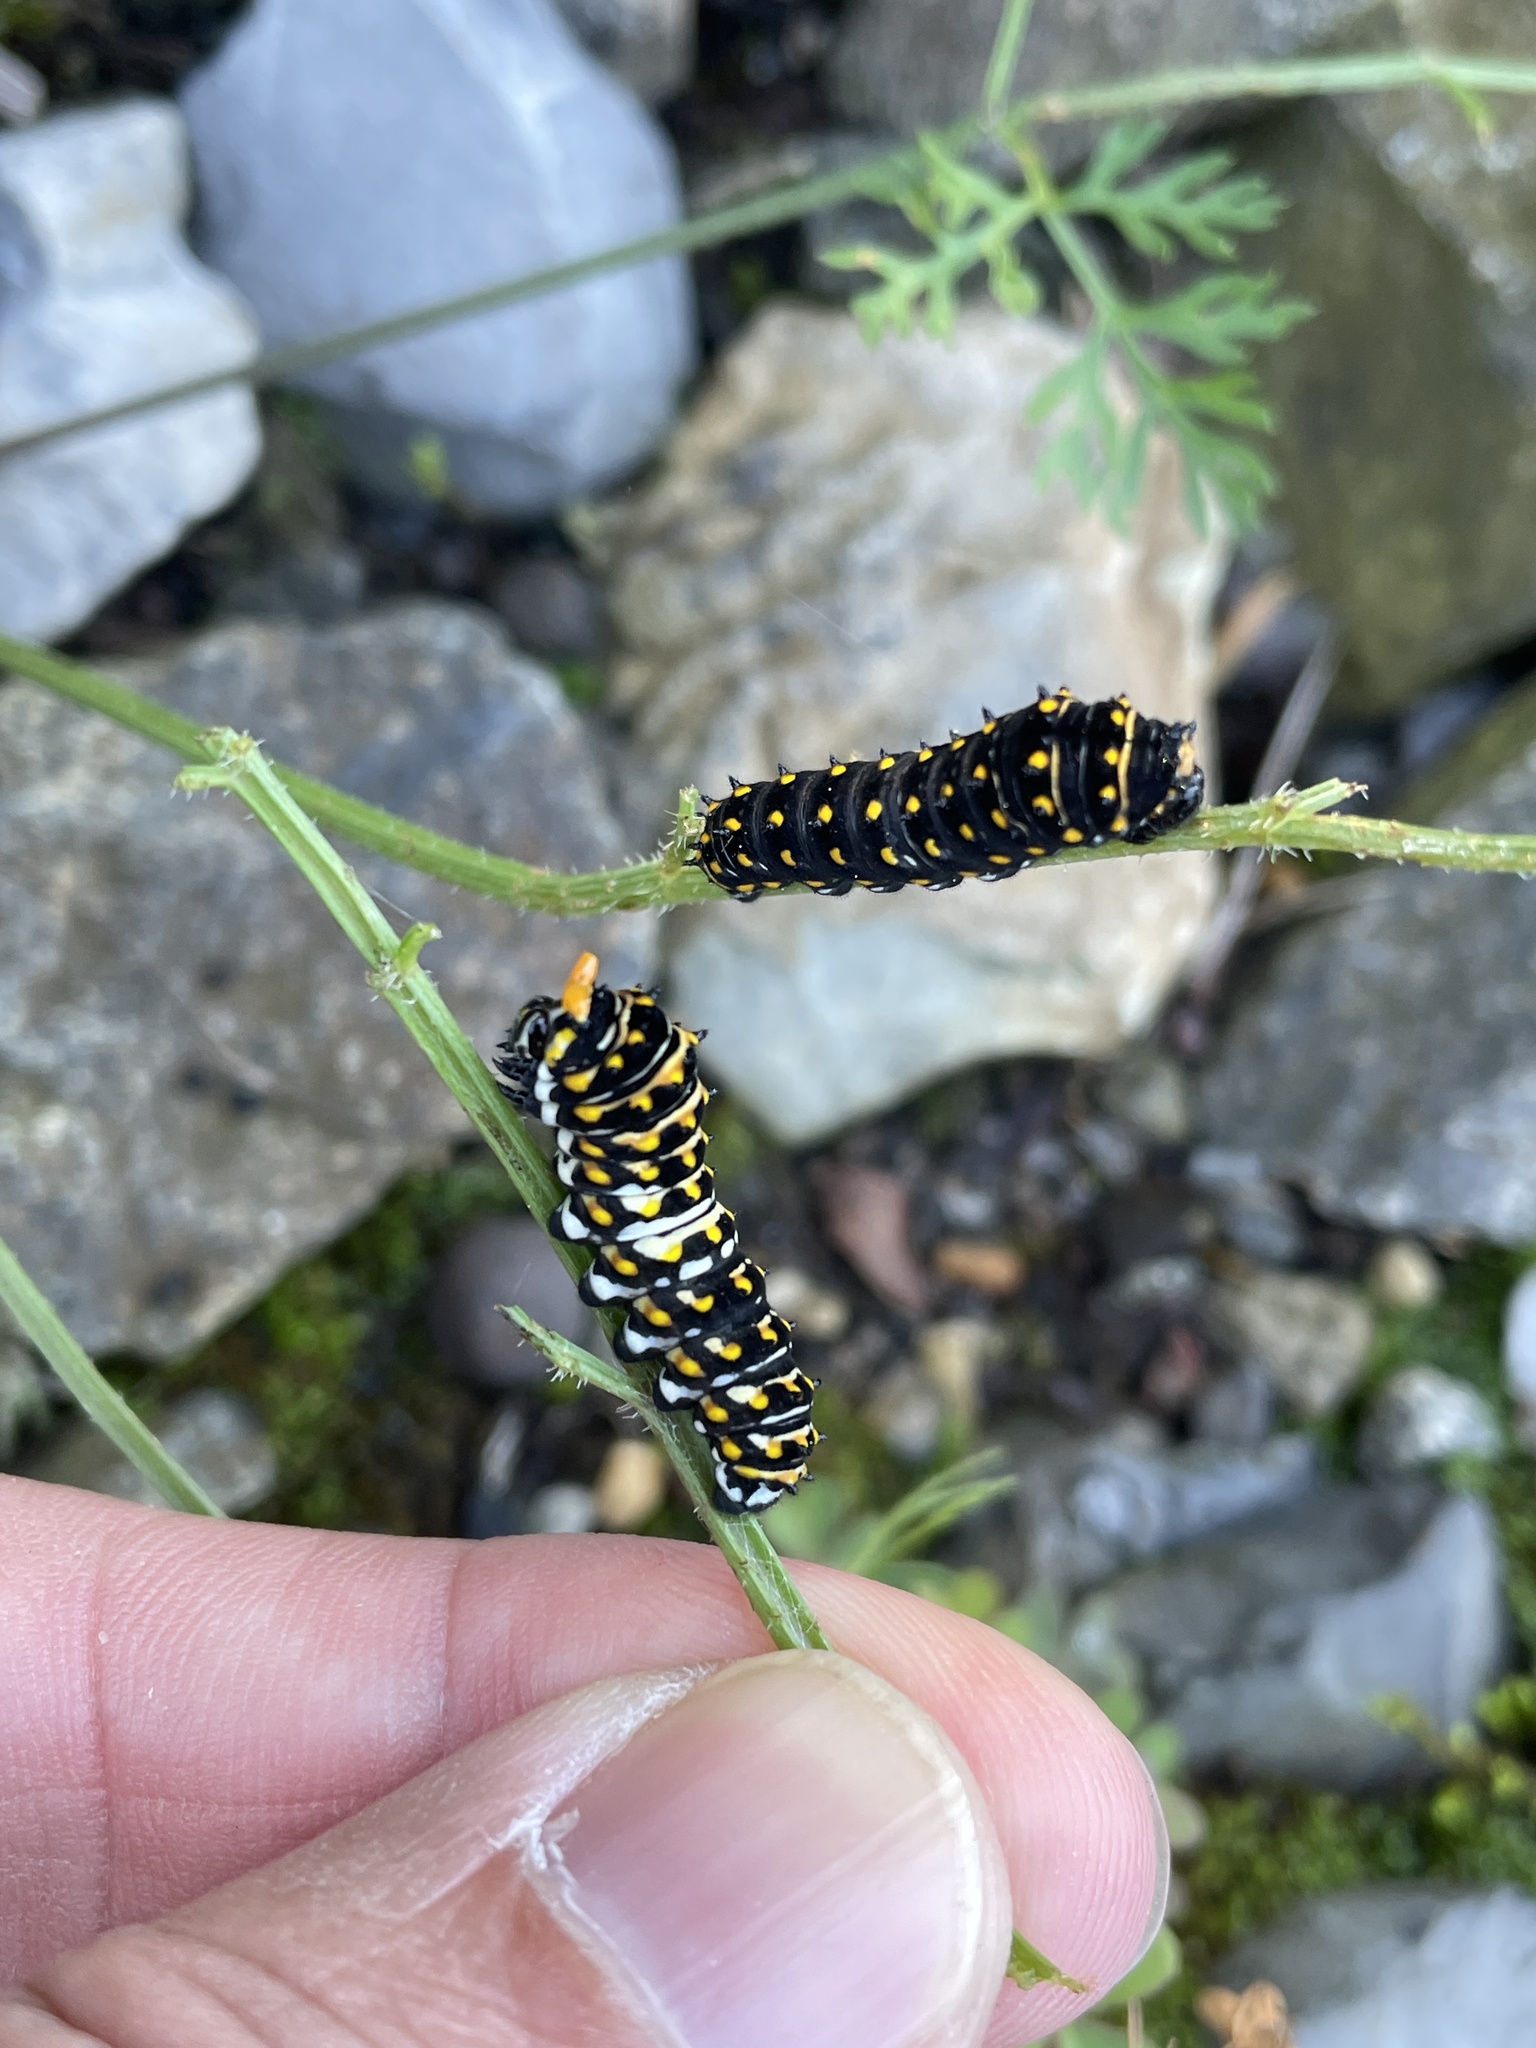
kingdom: Animalia
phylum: Arthropoda
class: Insecta
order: Lepidoptera
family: Papilionidae
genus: Papilio
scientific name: Papilio polyxenes
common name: Black swallowtail
